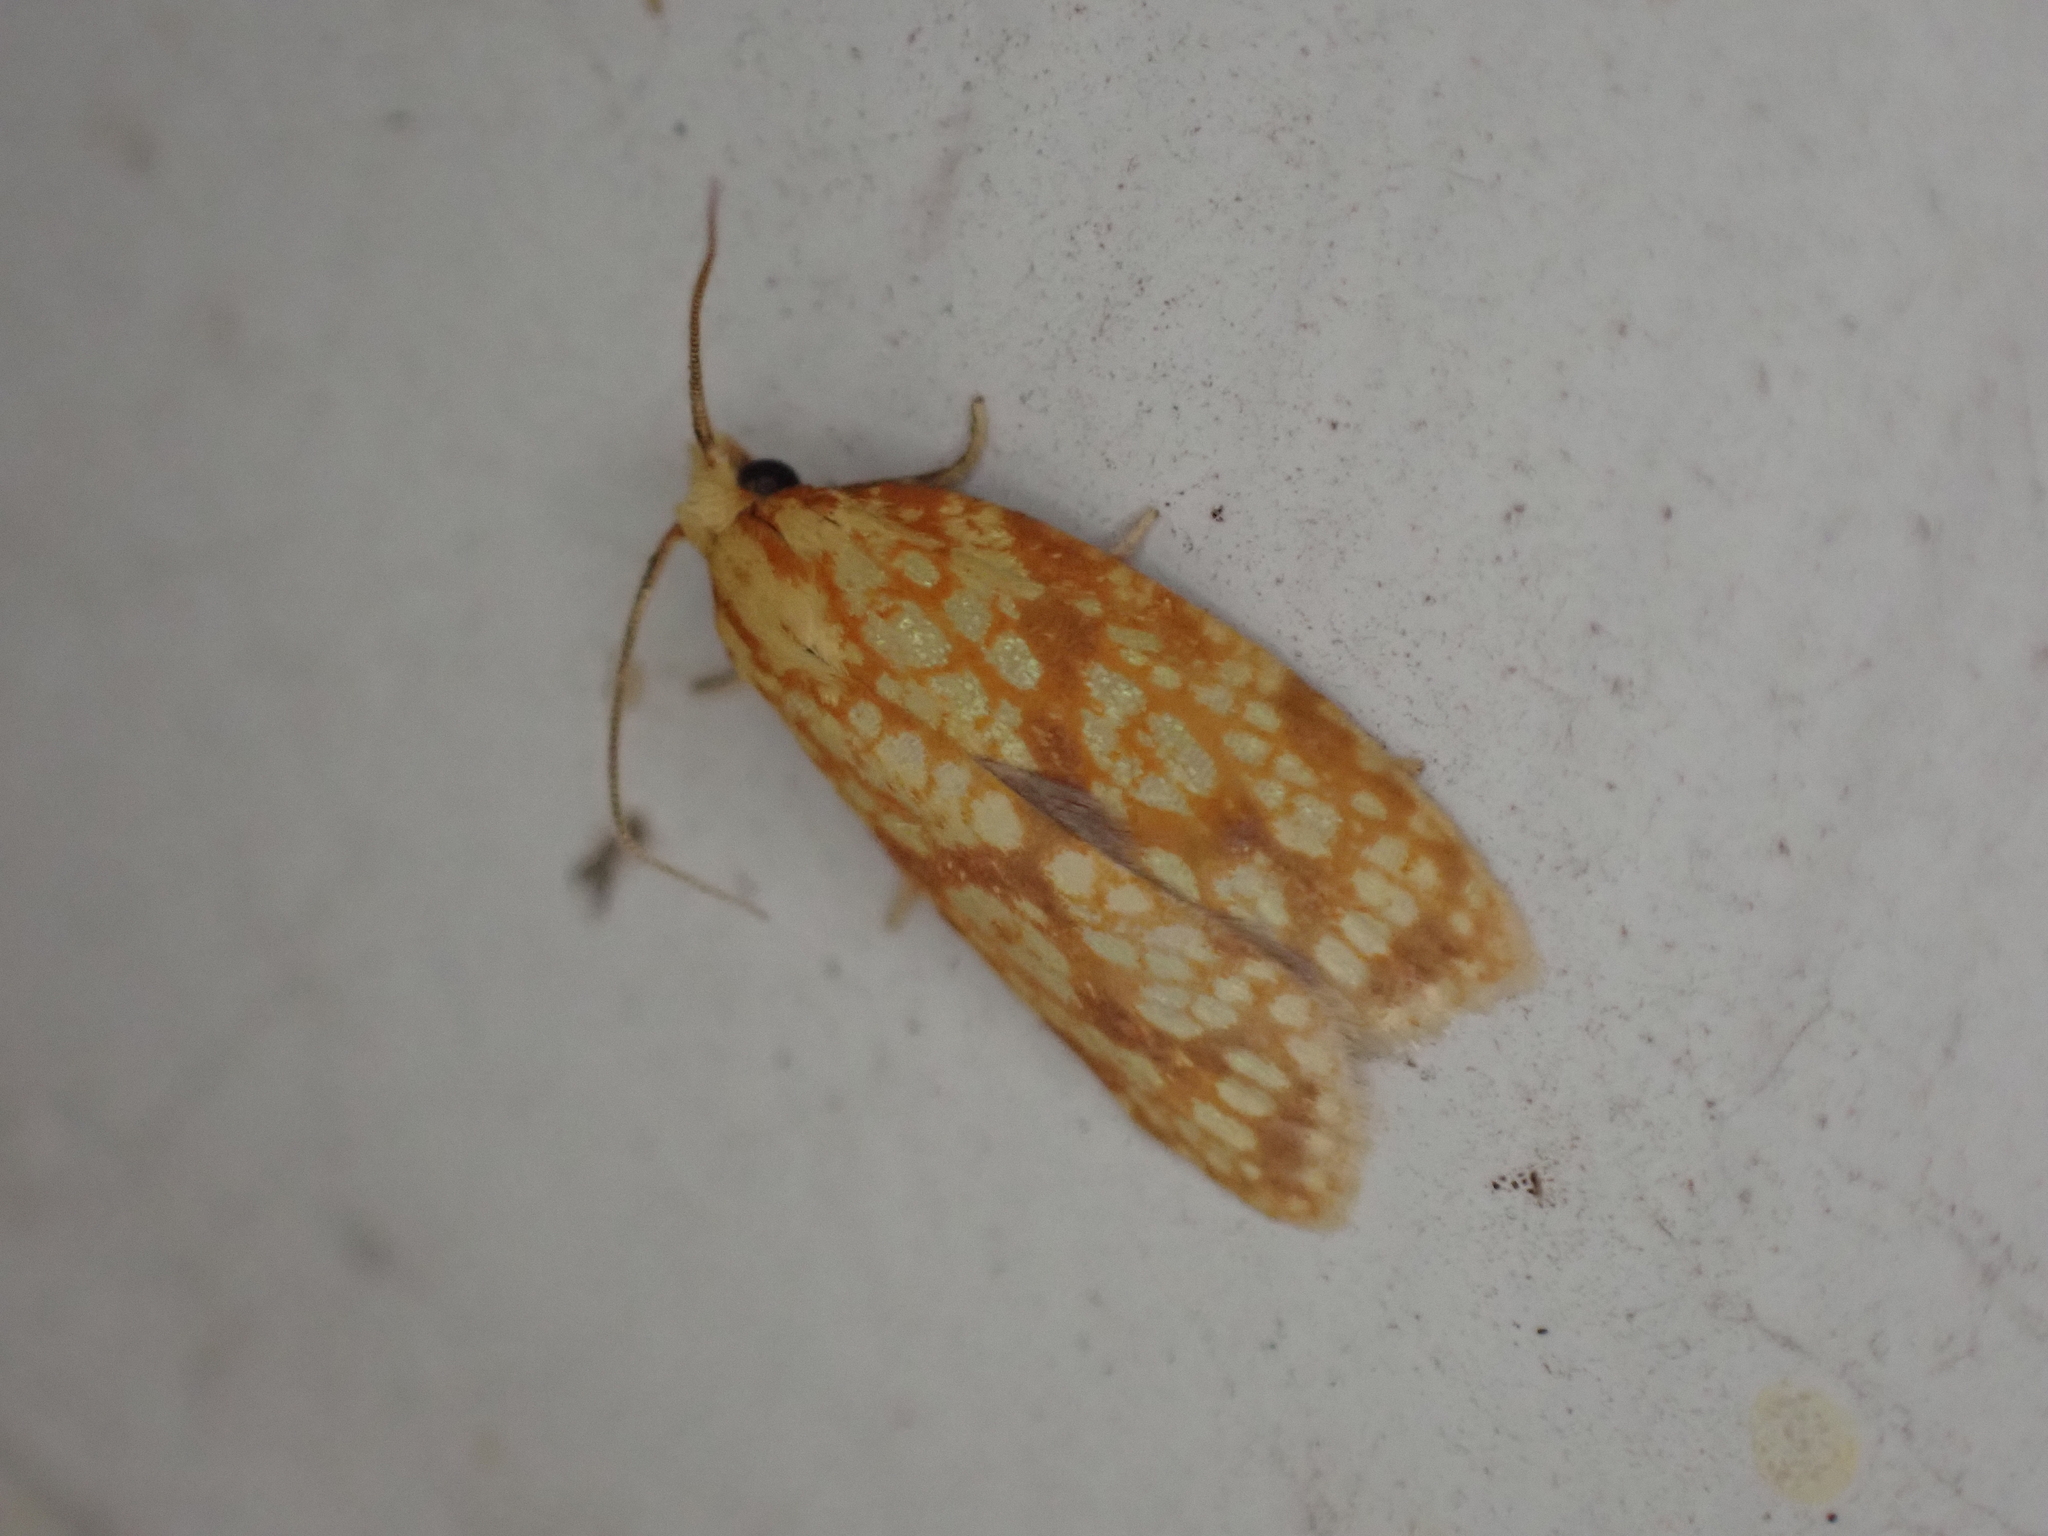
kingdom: Animalia
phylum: Arthropoda
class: Insecta
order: Lepidoptera
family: Tortricidae
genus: Sparganothis
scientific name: Sparganothis sulfureana
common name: Sparganothis fruitworm moth
